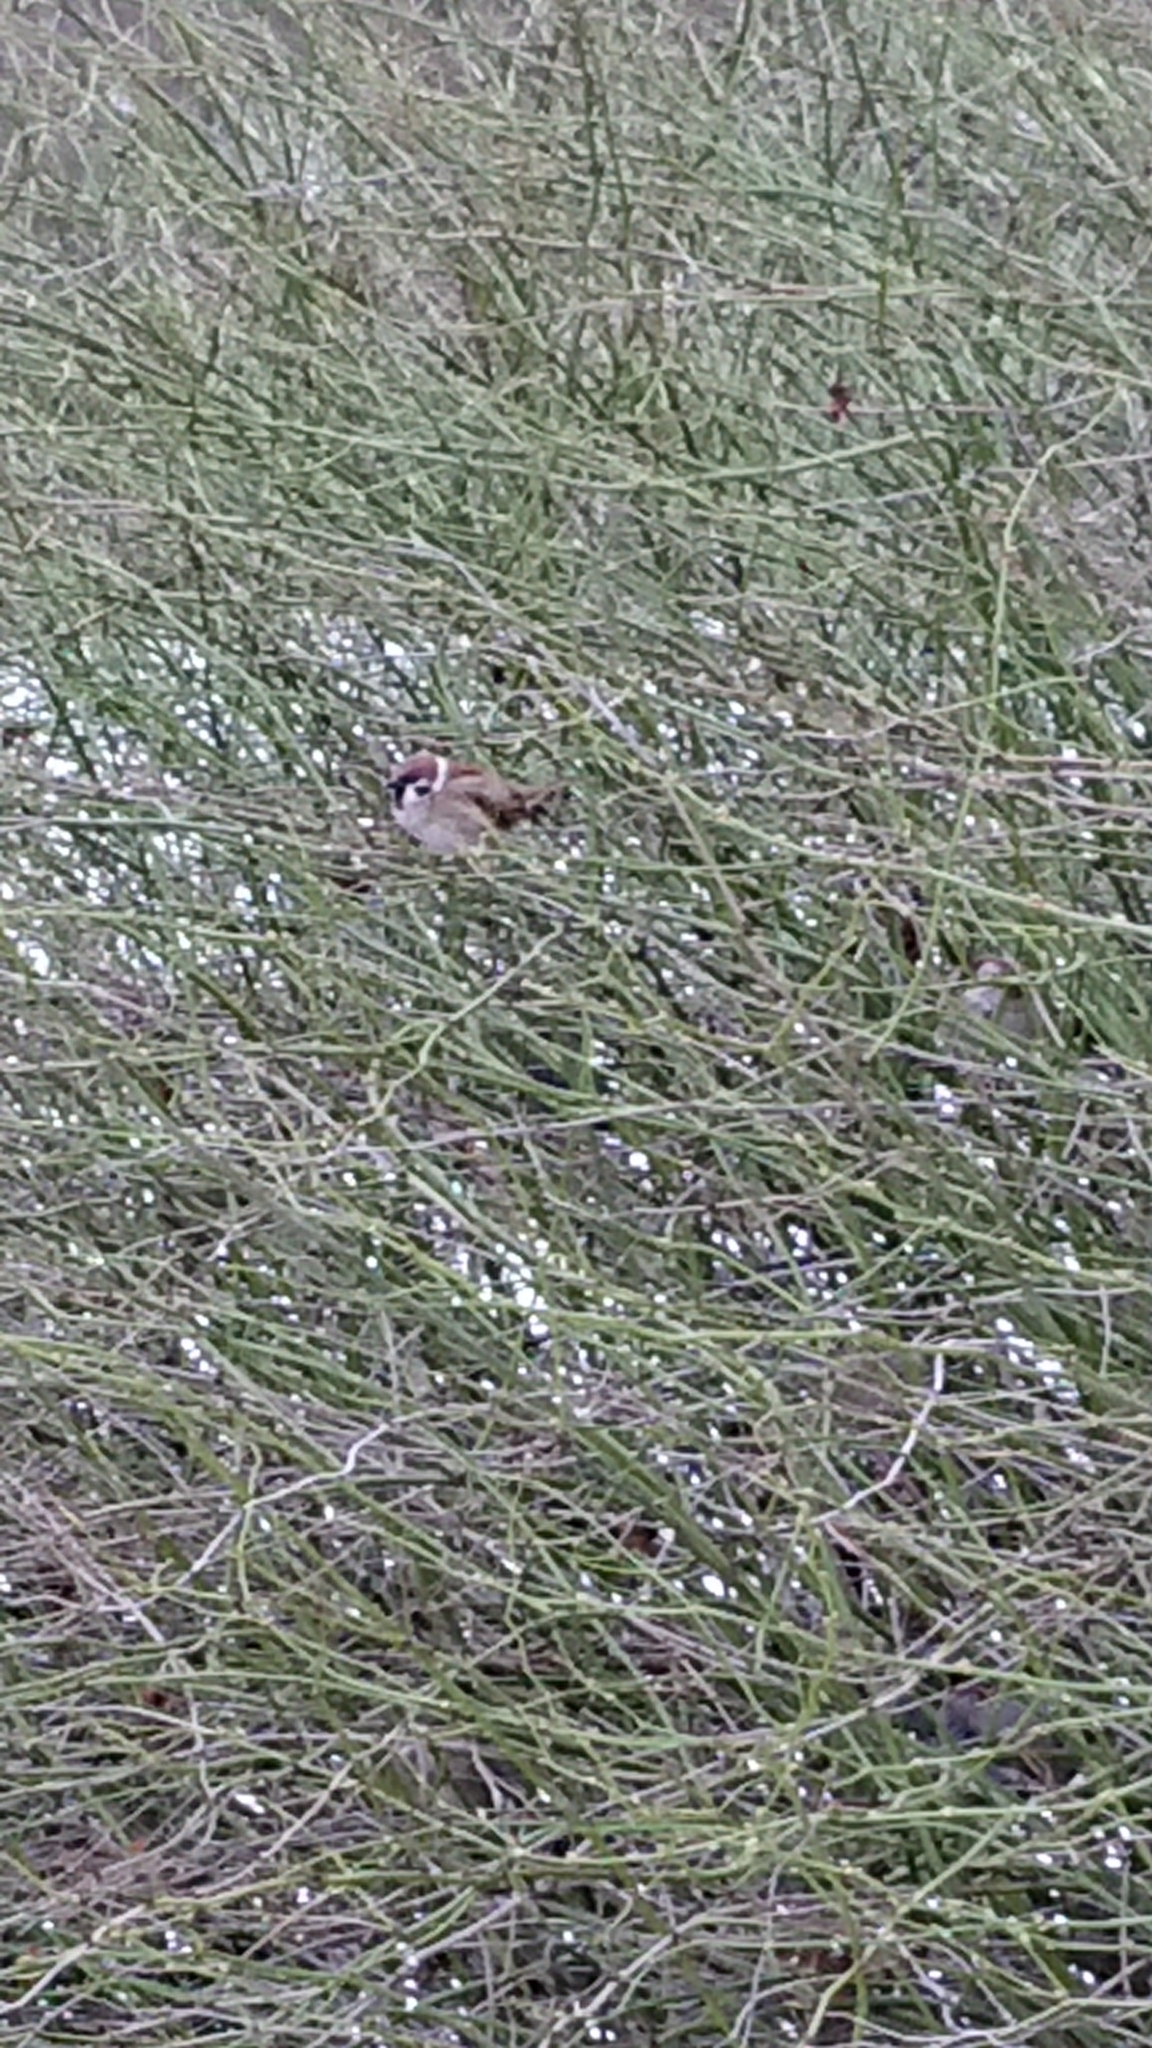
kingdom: Animalia
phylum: Chordata
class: Aves
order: Passeriformes
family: Passeridae
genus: Passer
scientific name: Passer montanus
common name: Eurasian tree sparrow
